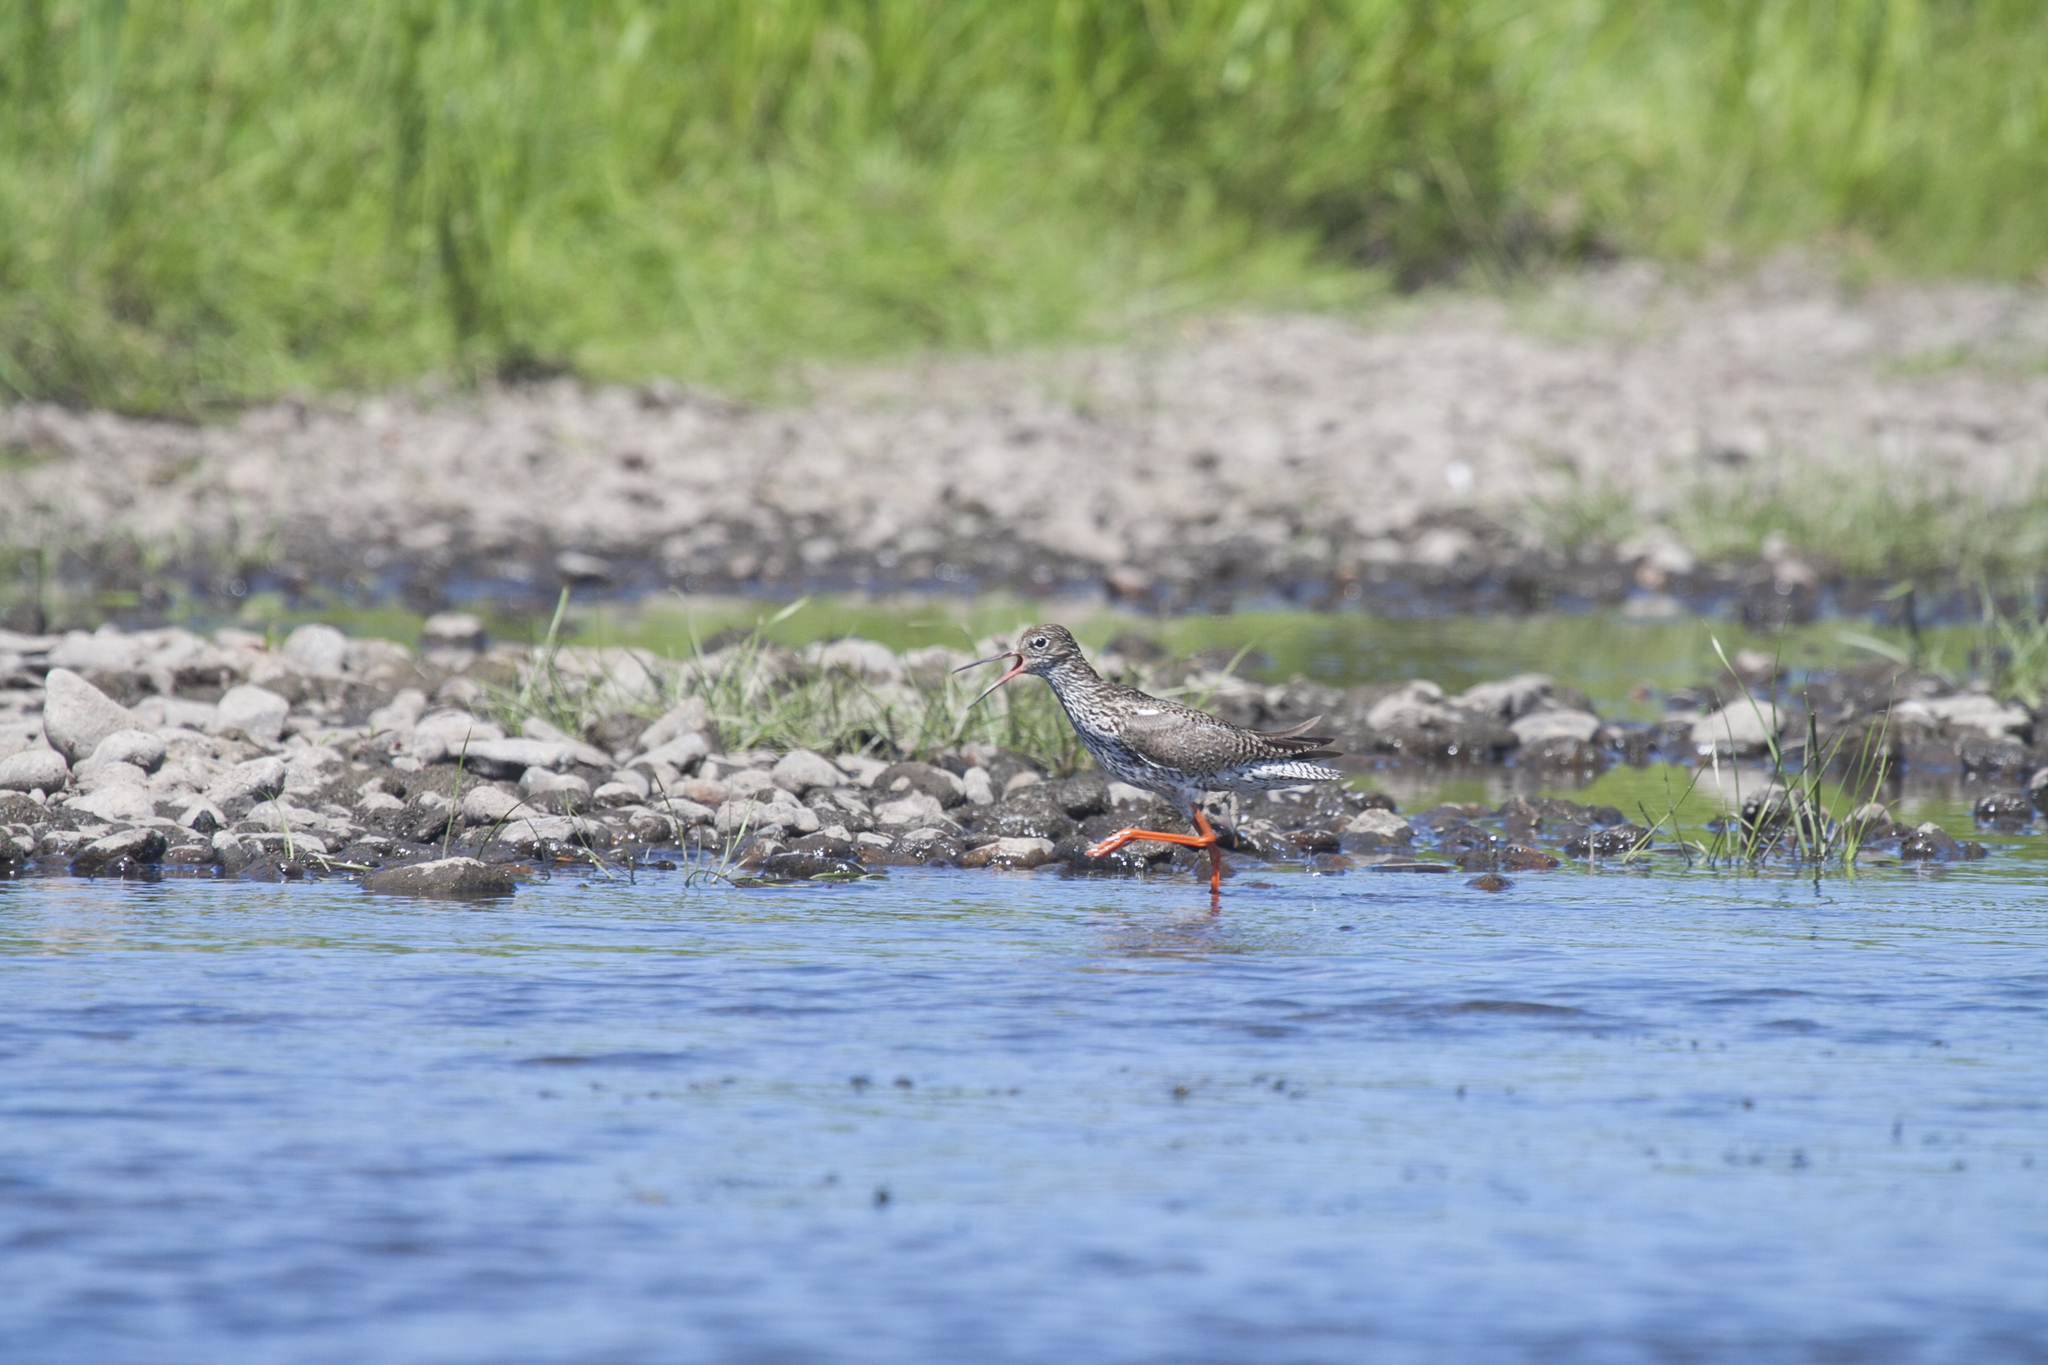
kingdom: Animalia
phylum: Chordata
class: Aves
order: Charadriiformes
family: Scolopacidae
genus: Tringa
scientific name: Tringa totanus
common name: Common redshank
